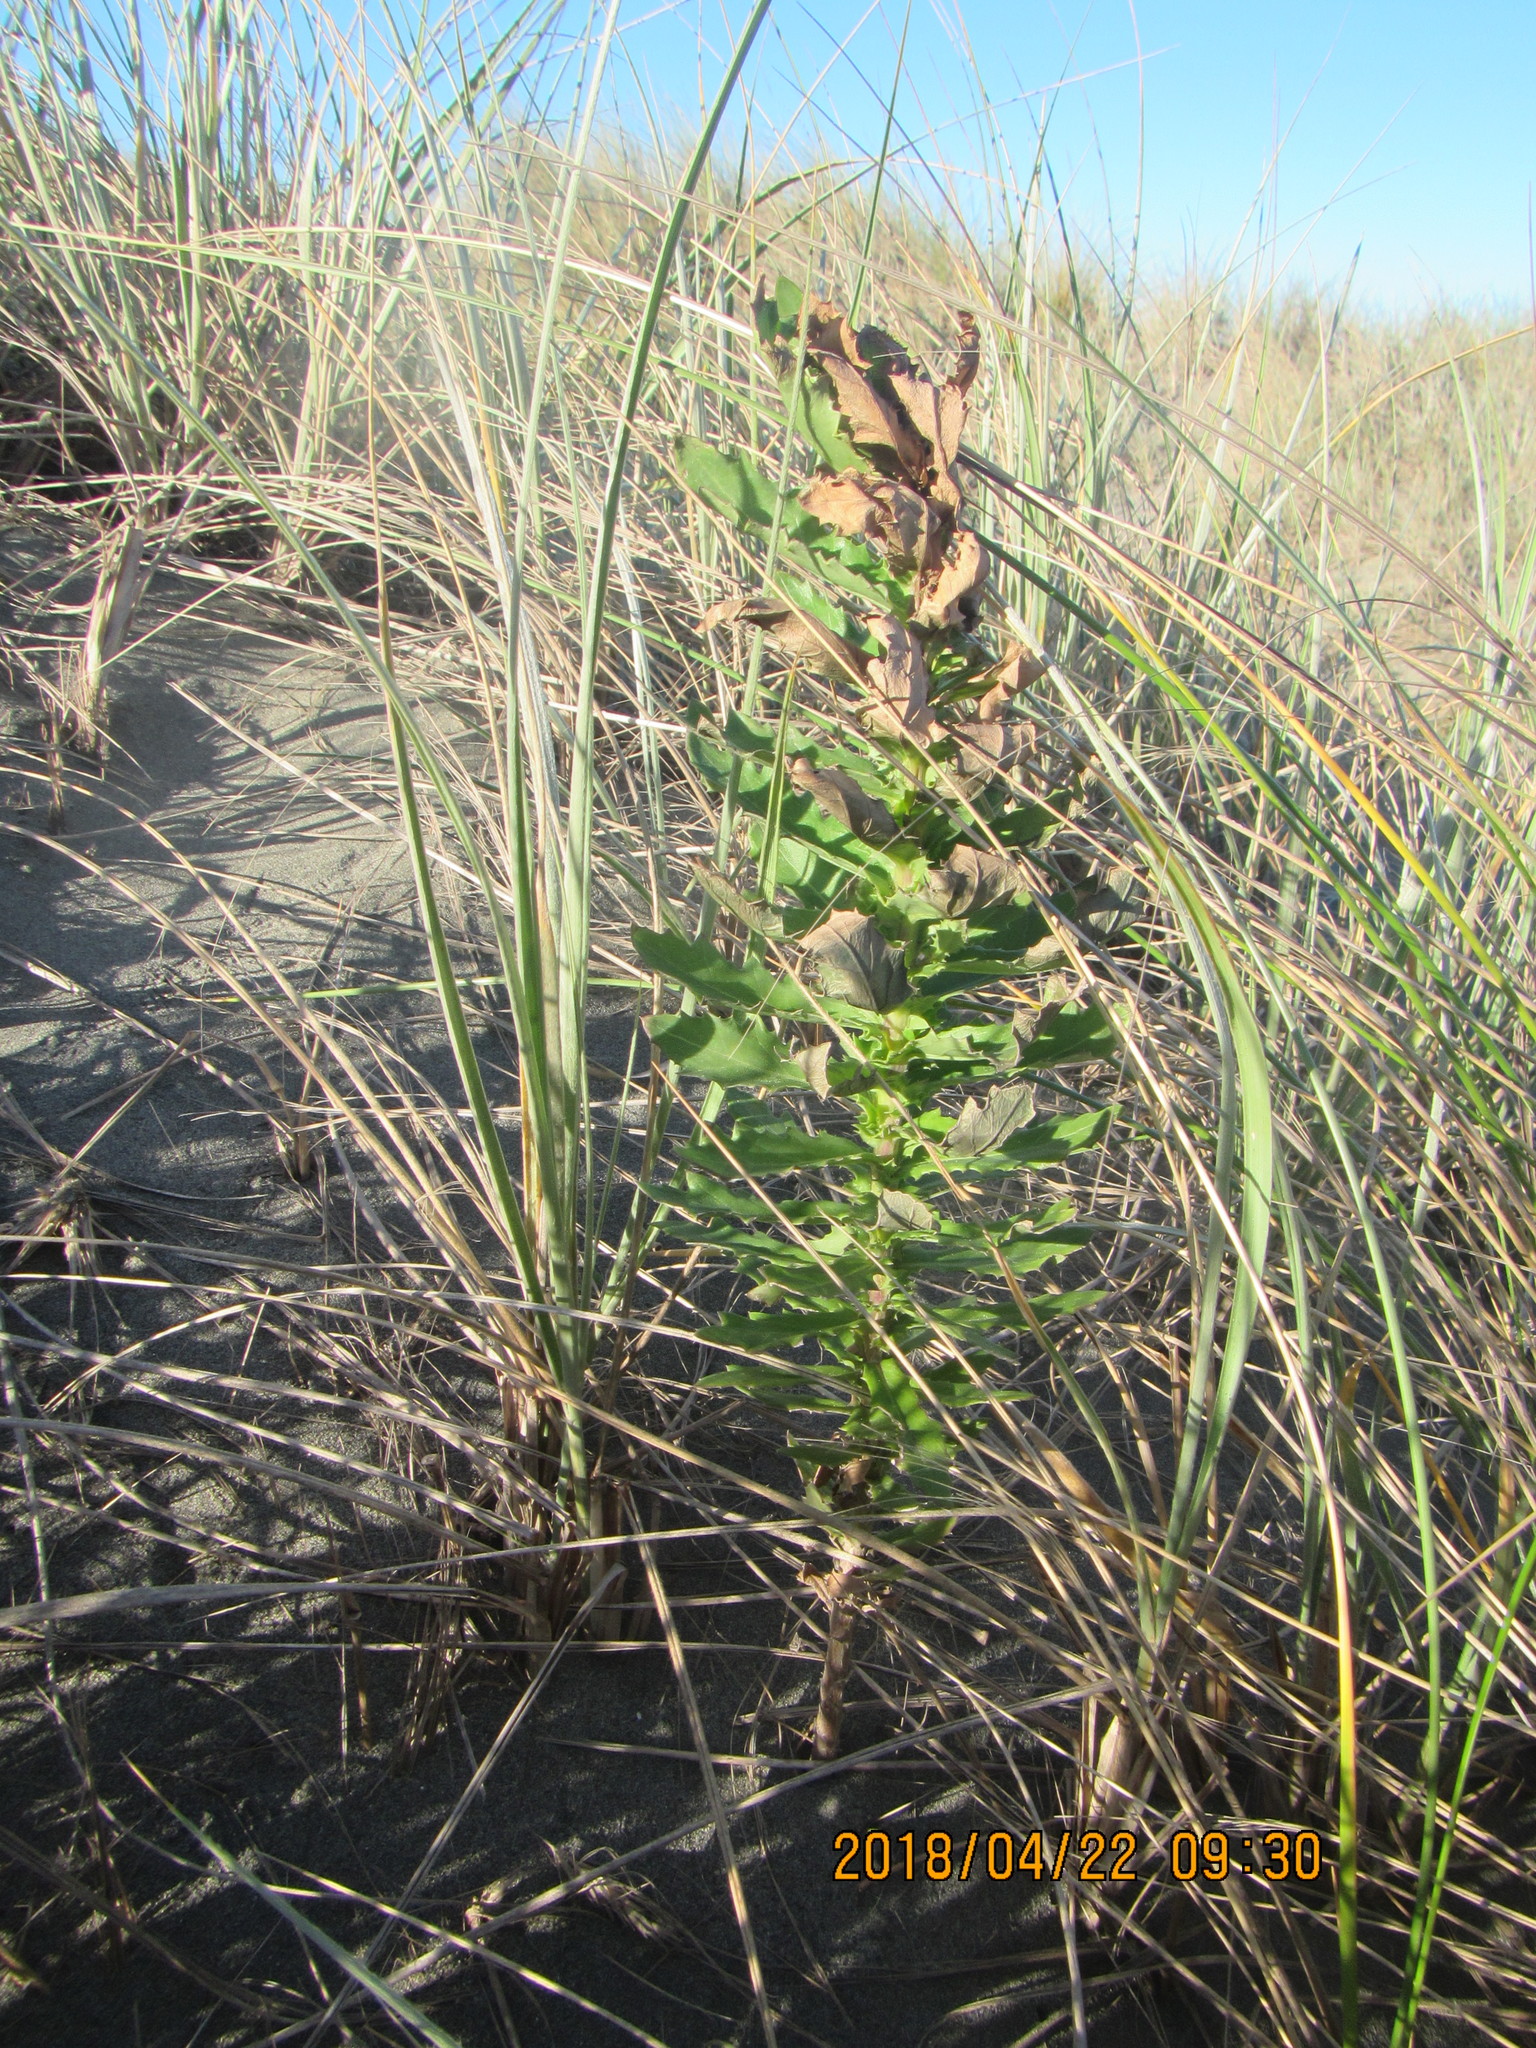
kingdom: Plantae
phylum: Tracheophyta
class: Magnoliopsida
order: Asterales
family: Asteraceae
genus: Senecio
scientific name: Senecio glastifolius
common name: Woad-leaved ragwort
